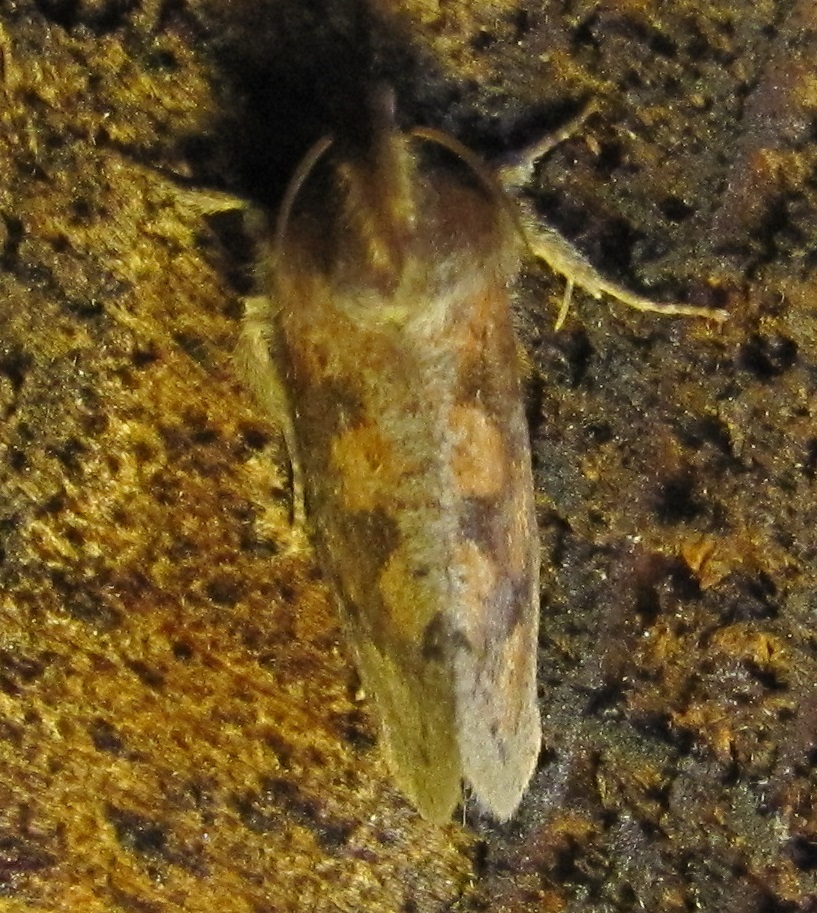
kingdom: Animalia
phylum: Arthropoda
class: Insecta
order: Lepidoptera
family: Tineidae
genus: Acrolophus
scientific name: Acrolophus plumifrontella
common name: Eastern grass tubeworm moth
